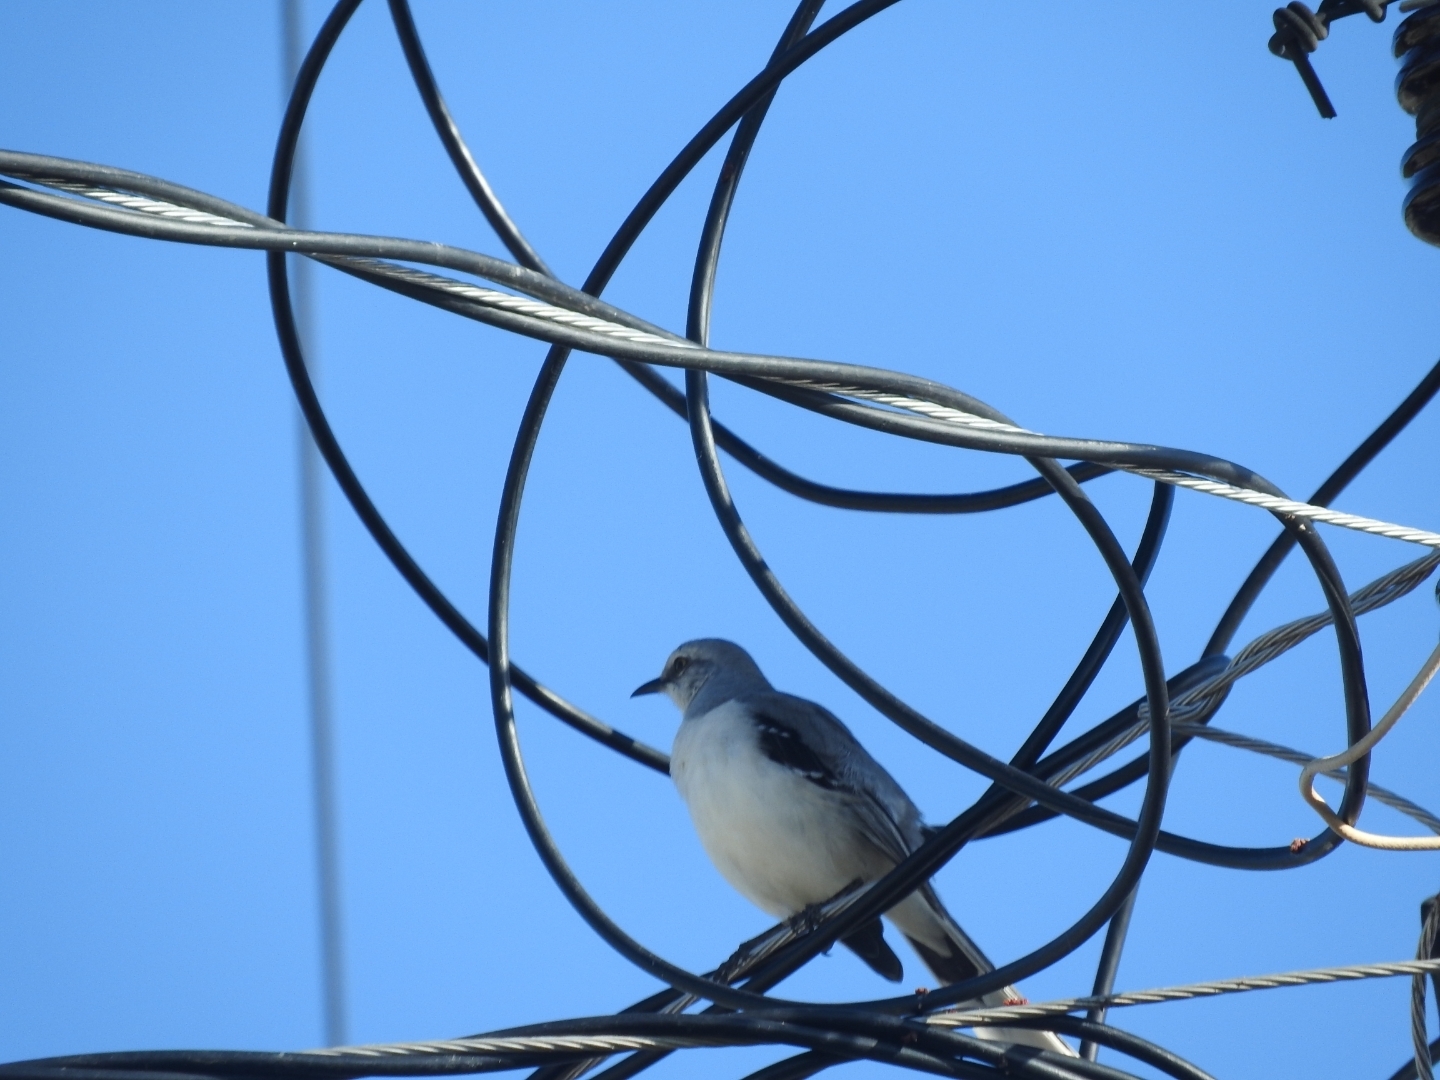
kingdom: Animalia
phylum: Chordata
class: Aves
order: Passeriformes
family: Mimidae
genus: Mimus
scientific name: Mimus gilvus
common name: Tropical mockingbird
